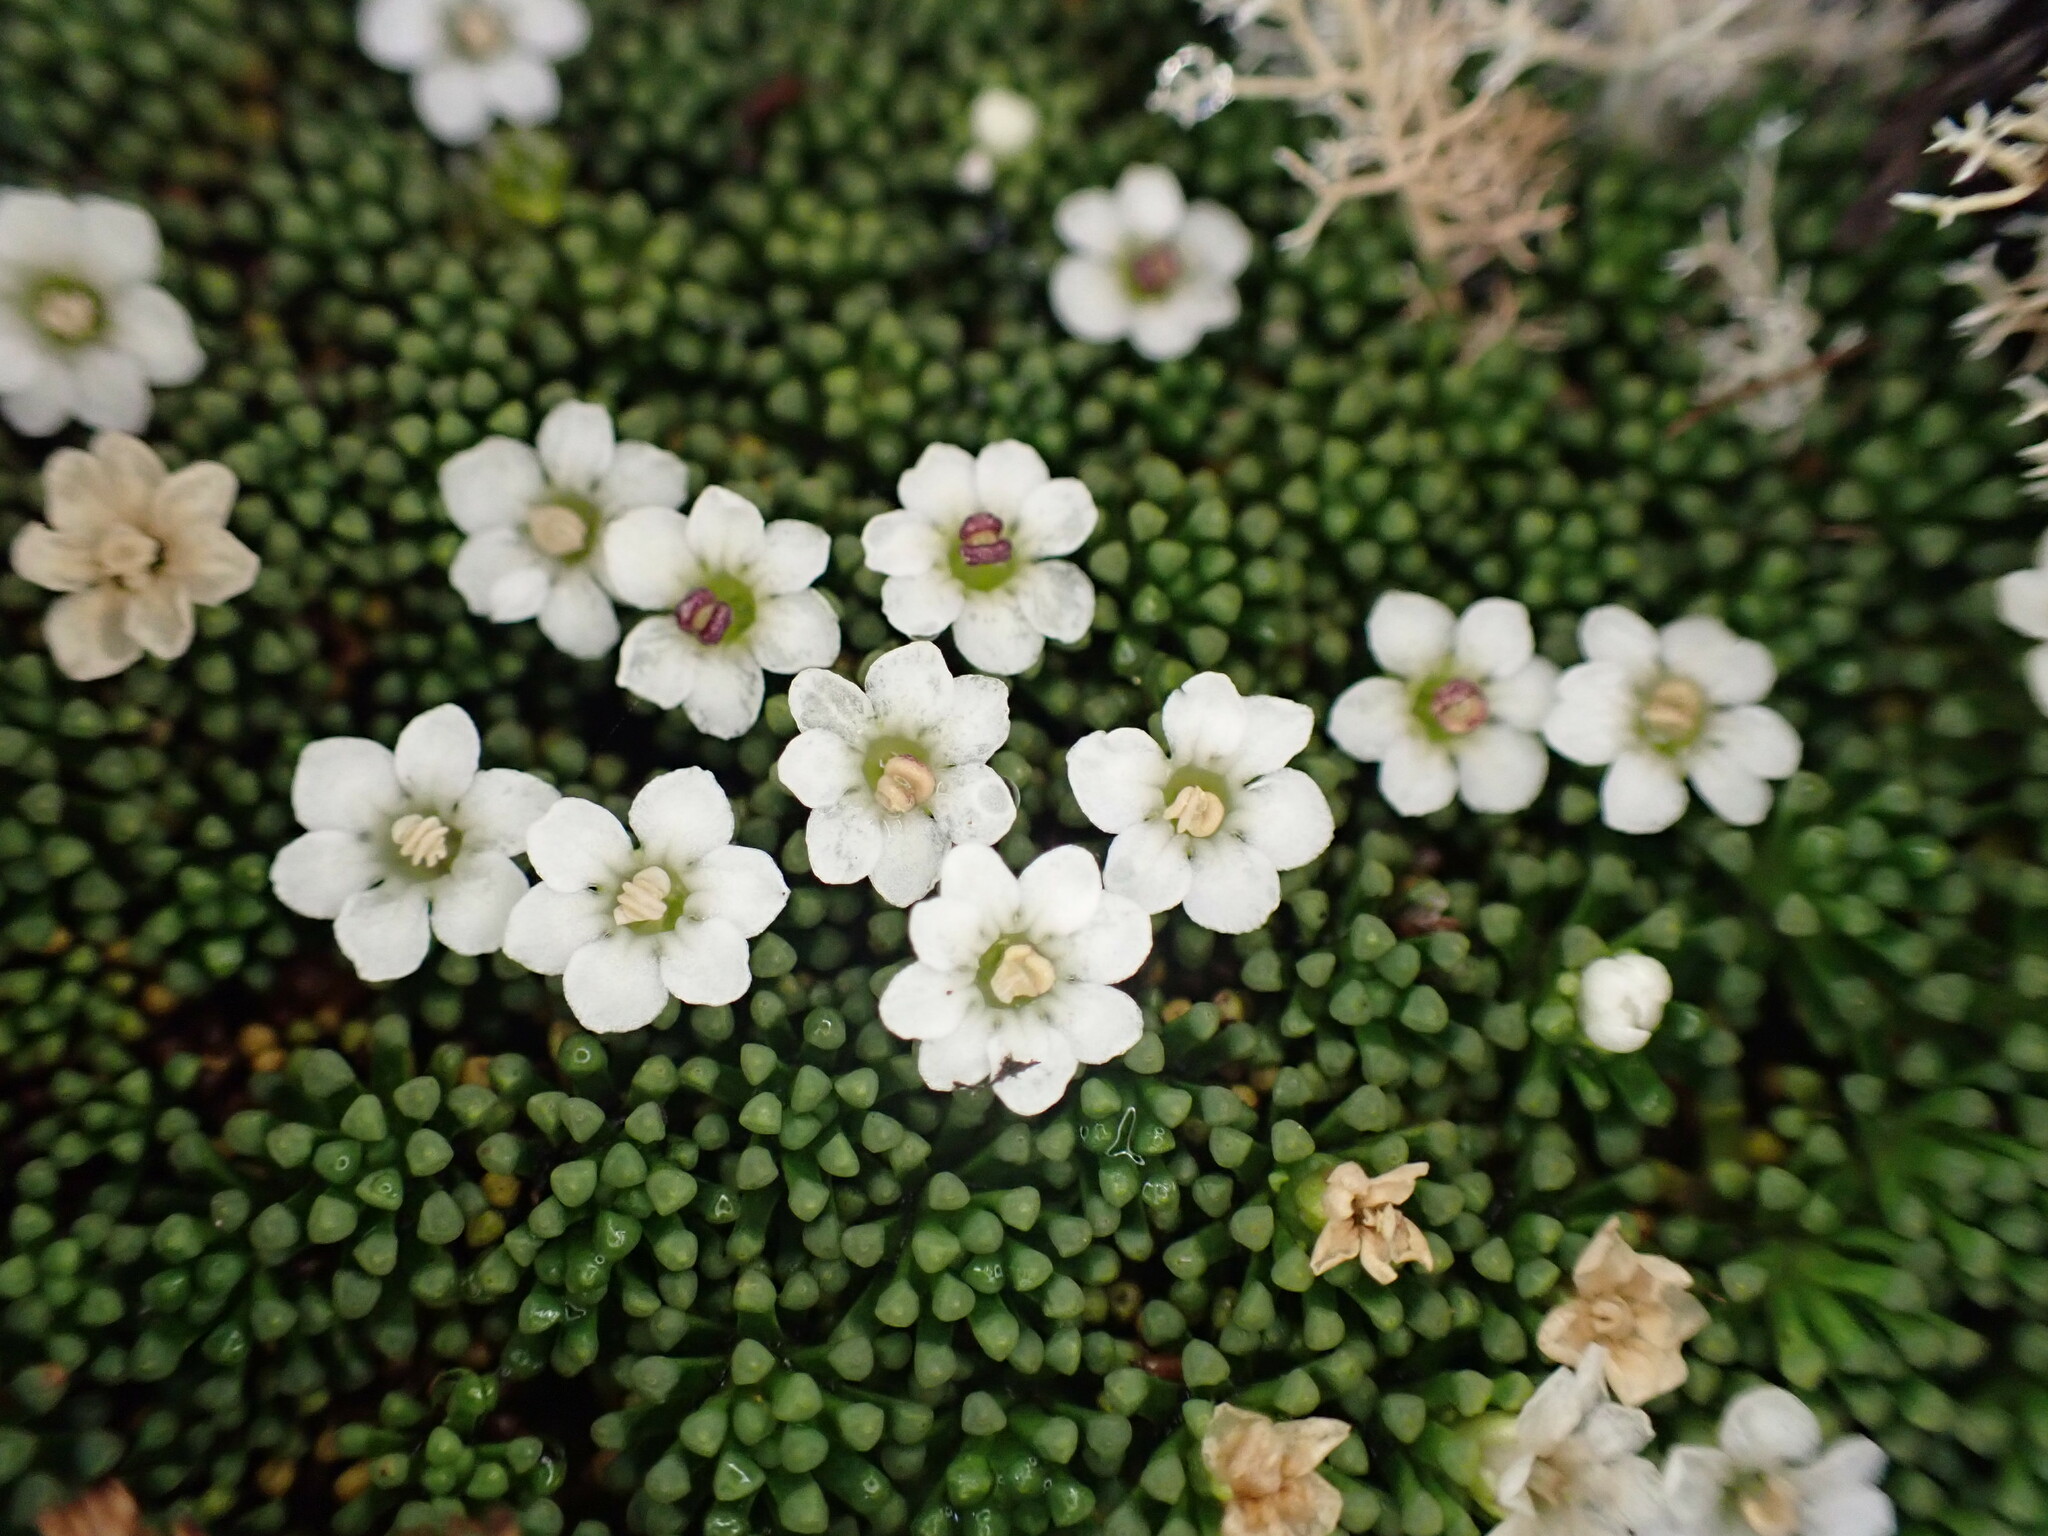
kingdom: Plantae
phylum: Tracheophyta
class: Magnoliopsida
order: Asterales
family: Stylidiaceae
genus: Phyllachne
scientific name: Phyllachne colensoi
